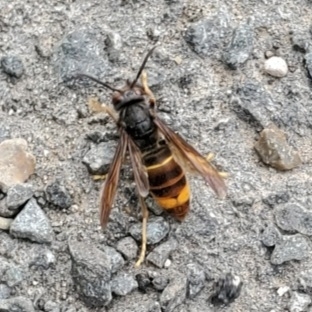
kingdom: Animalia
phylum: Arthropoda
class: Insecta
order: Hymenoptera
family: Vespidae
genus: Vespa
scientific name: Vespa velutina
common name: Asian hornet
